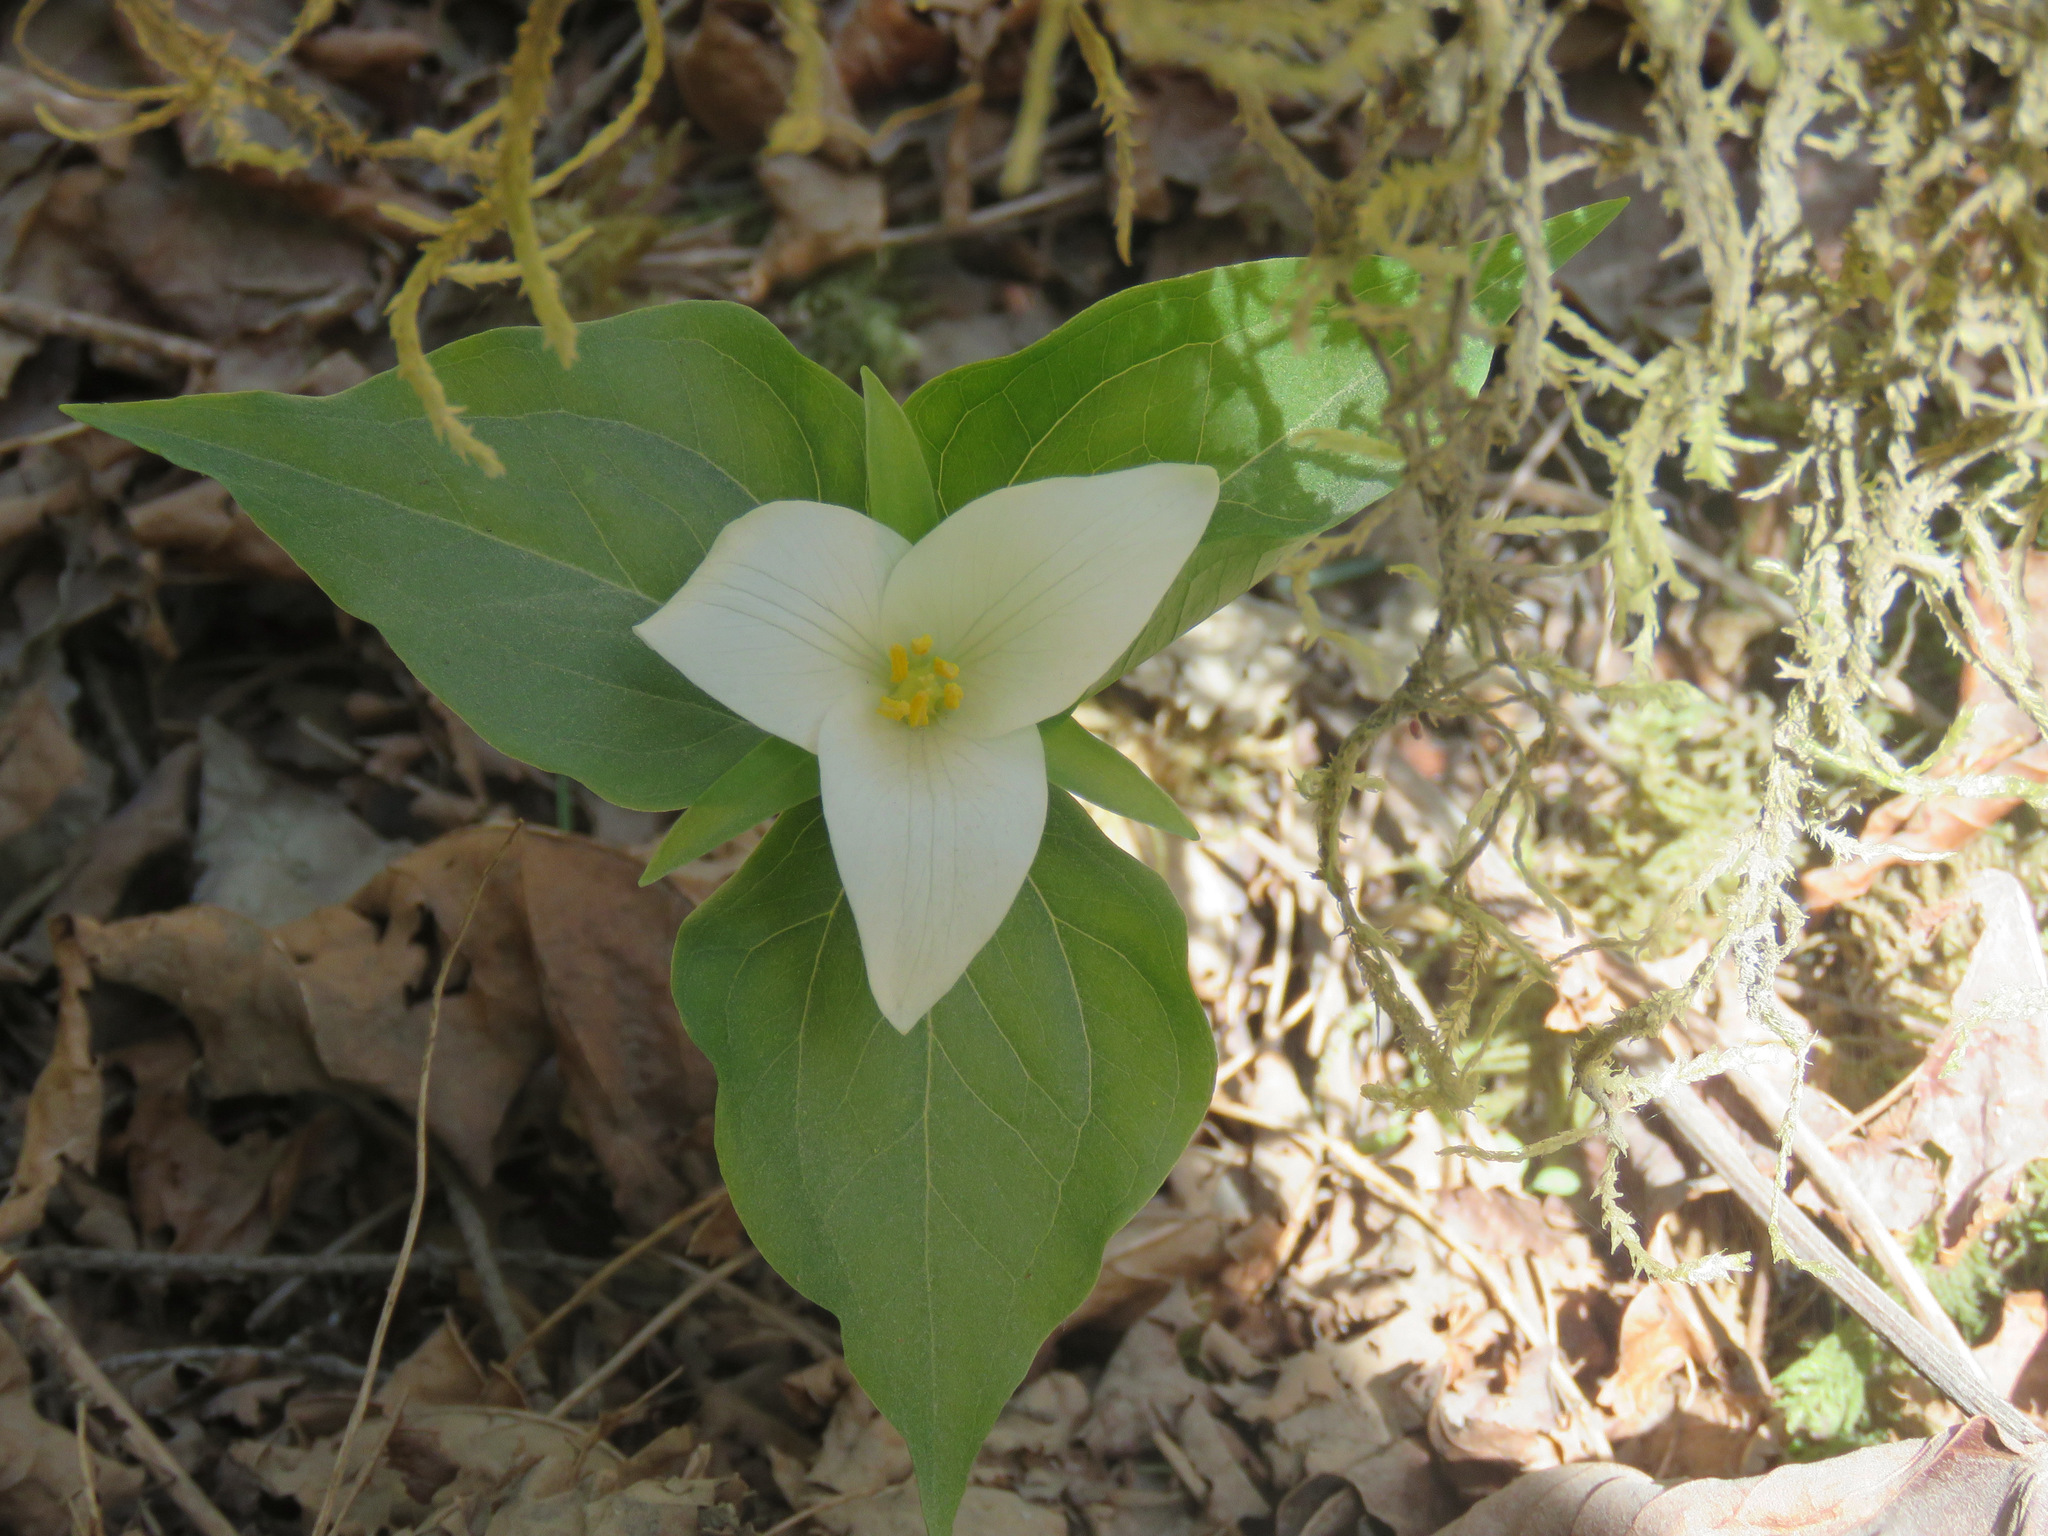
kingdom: Plantae
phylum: Tracheophyta
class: Liliopsida
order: Liliales
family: Melanthiaceae
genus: Trillium
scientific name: Trillium ovatum
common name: Pacific trillium
